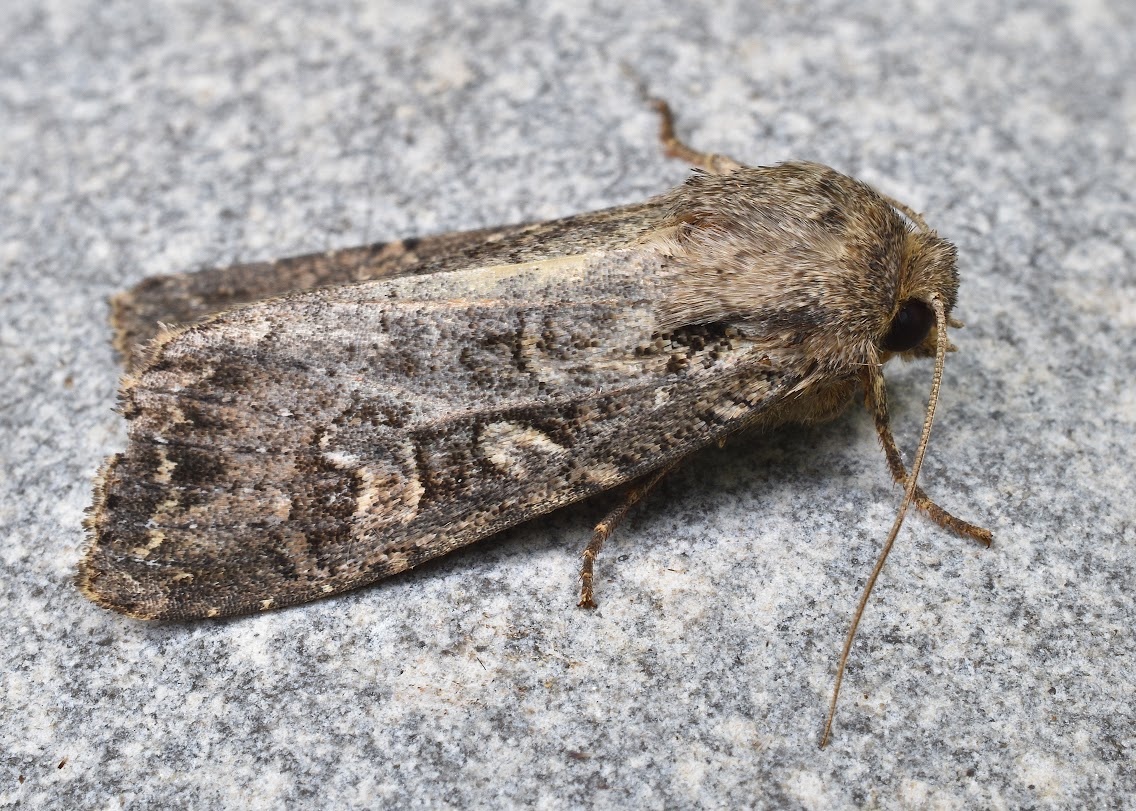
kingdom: Animalia
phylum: Arthropoda
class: Insecta
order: Lepidoptera
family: Noctuidae
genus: Apamea
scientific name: Apamea devastator
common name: Glassy cutworm
